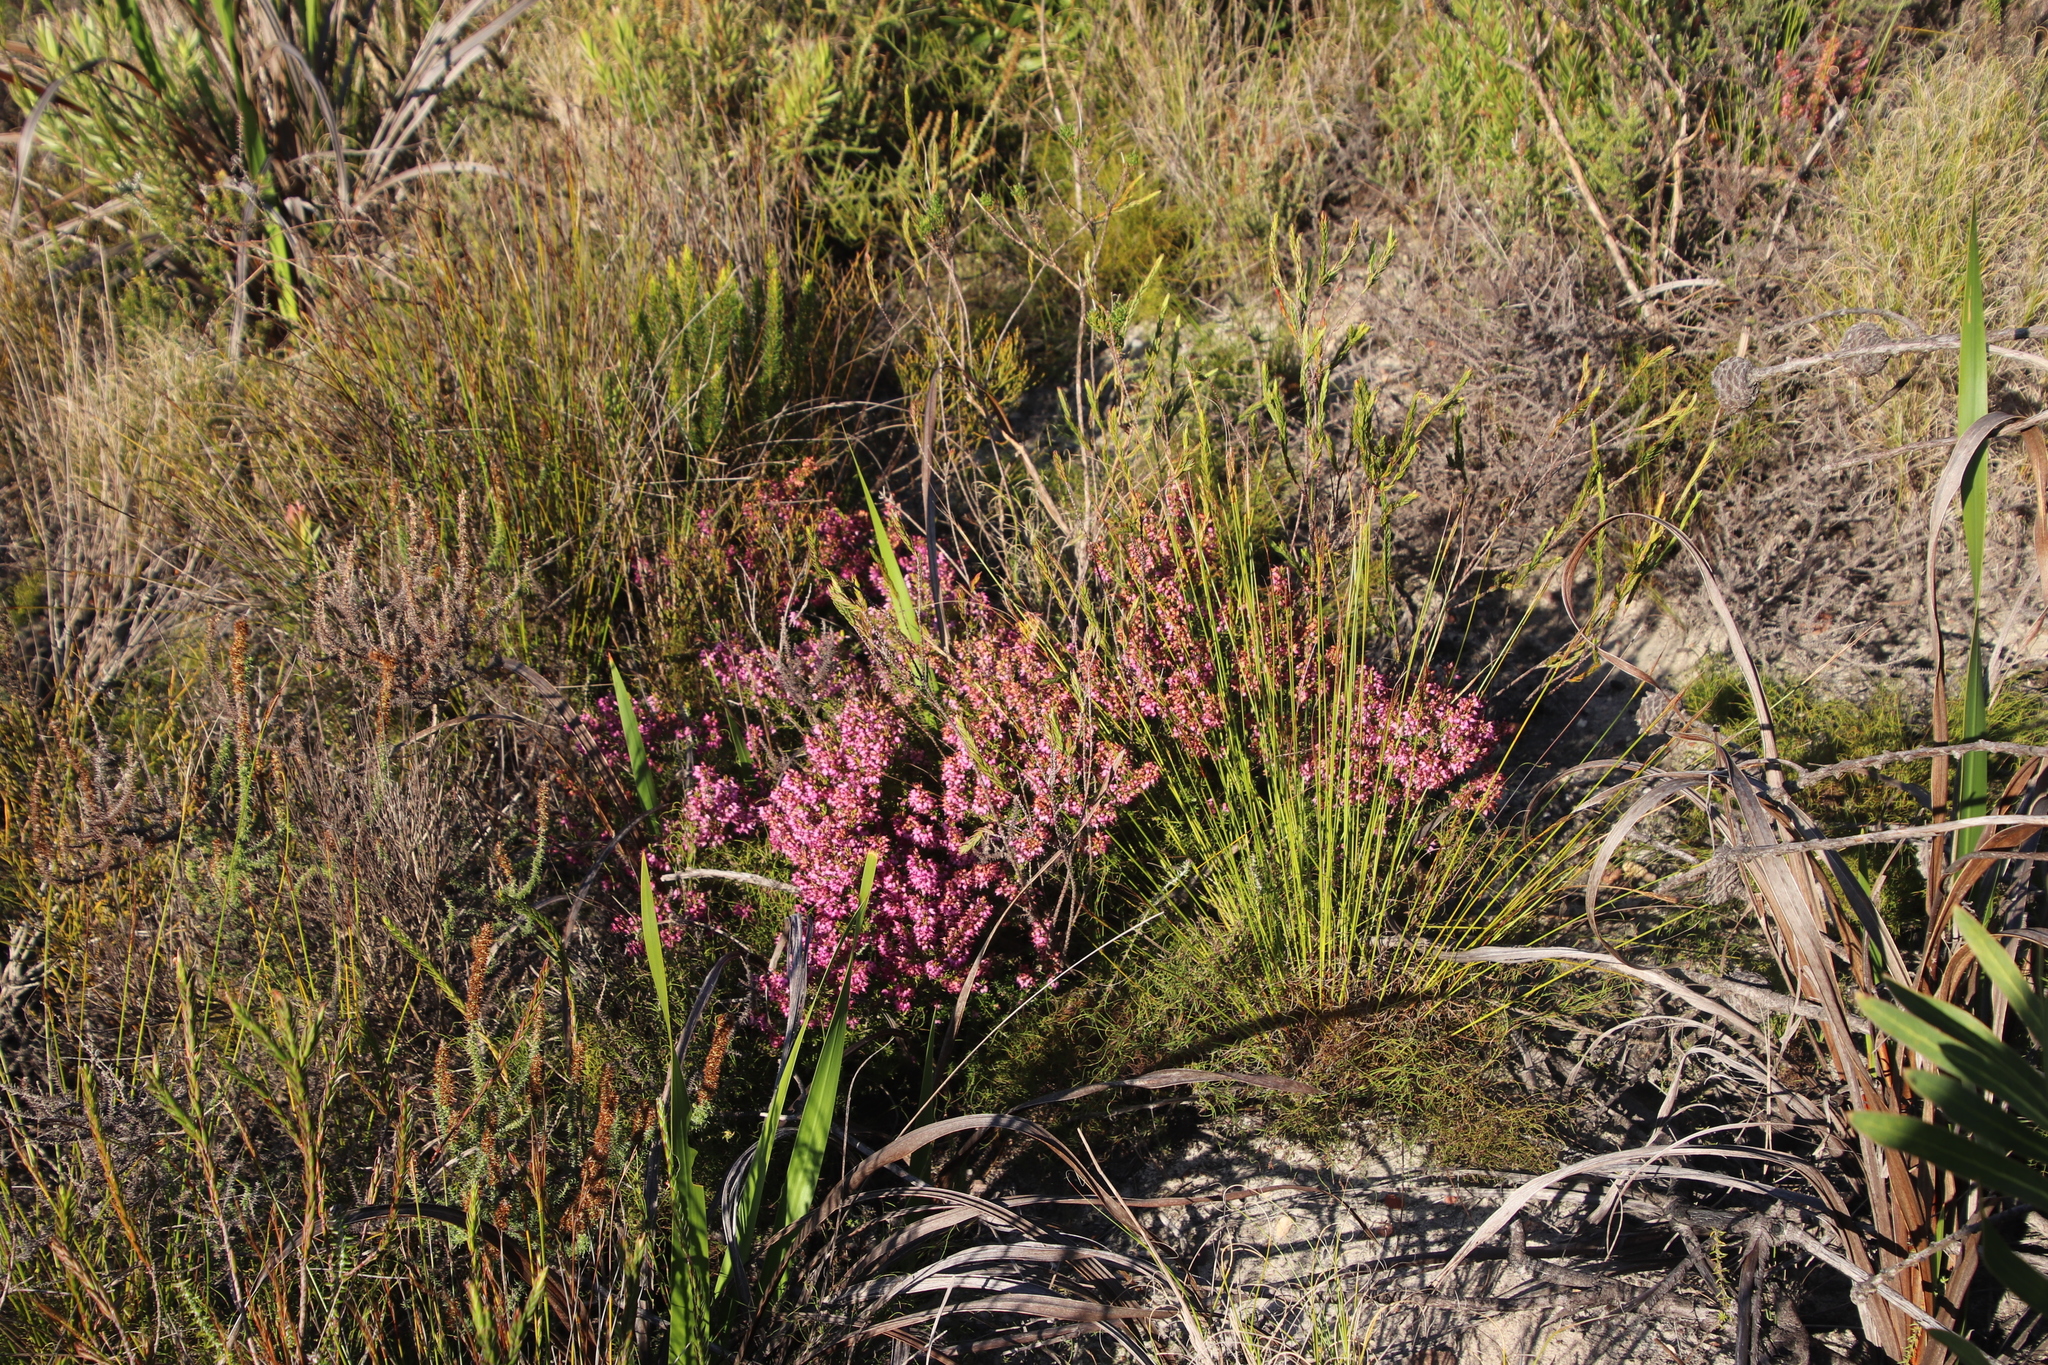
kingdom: Plantae
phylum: Tracheophyta
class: Magnoliopsida
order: Ericales
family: Ericaceae
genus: Erica
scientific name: Erica nudiflora
